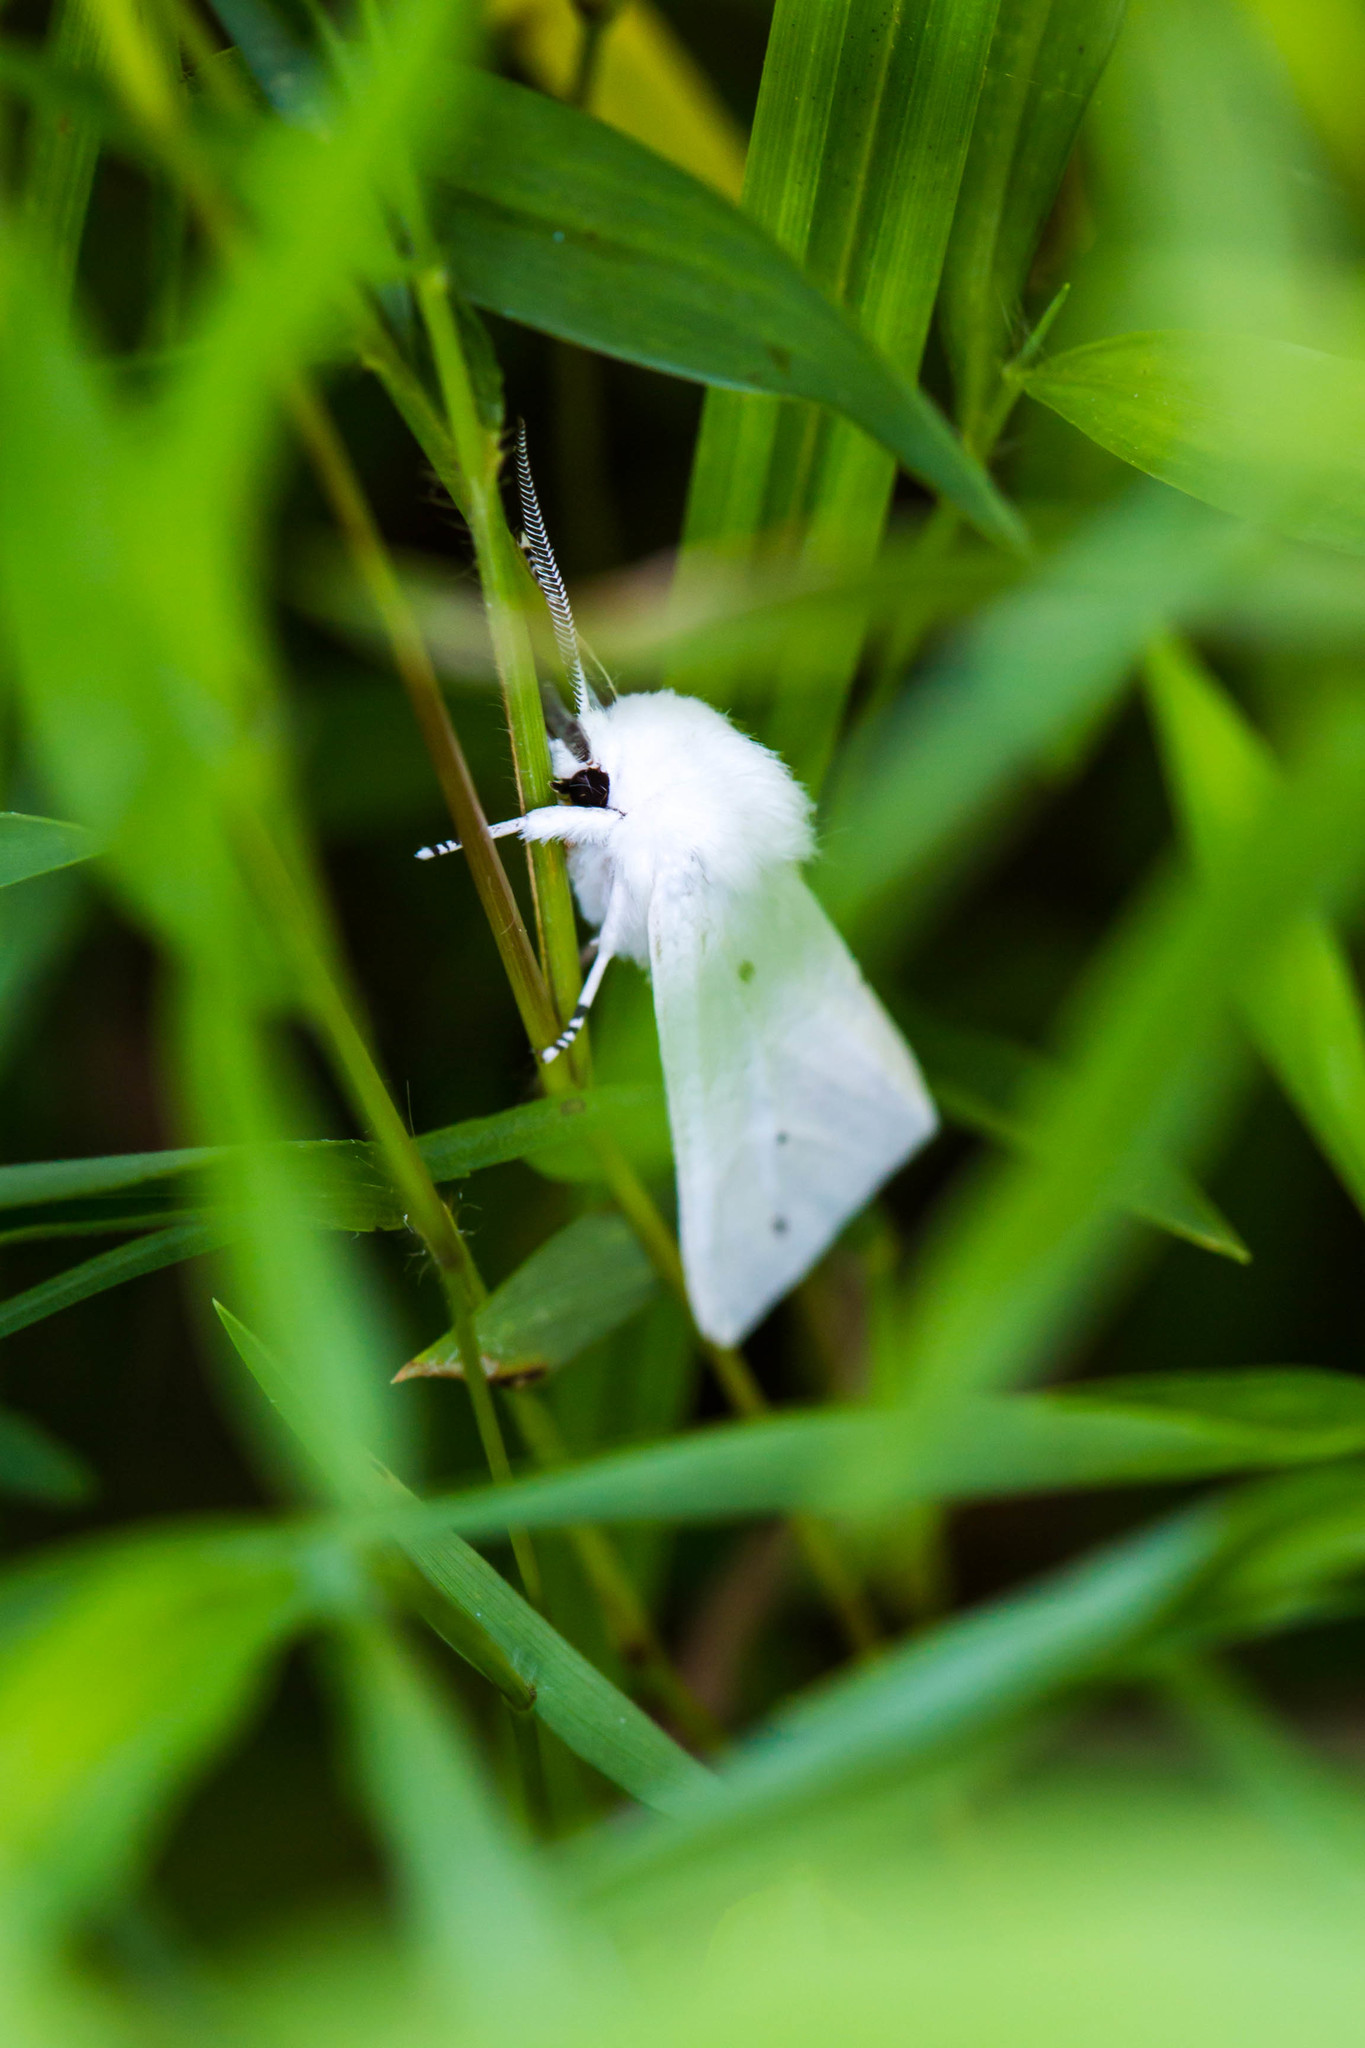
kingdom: Animalia
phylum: Arthropoda
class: Insecta
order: Lepidoptera
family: Erebidae
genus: Spilosoma
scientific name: Spilosoma virginica
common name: Virginia tiger moth
